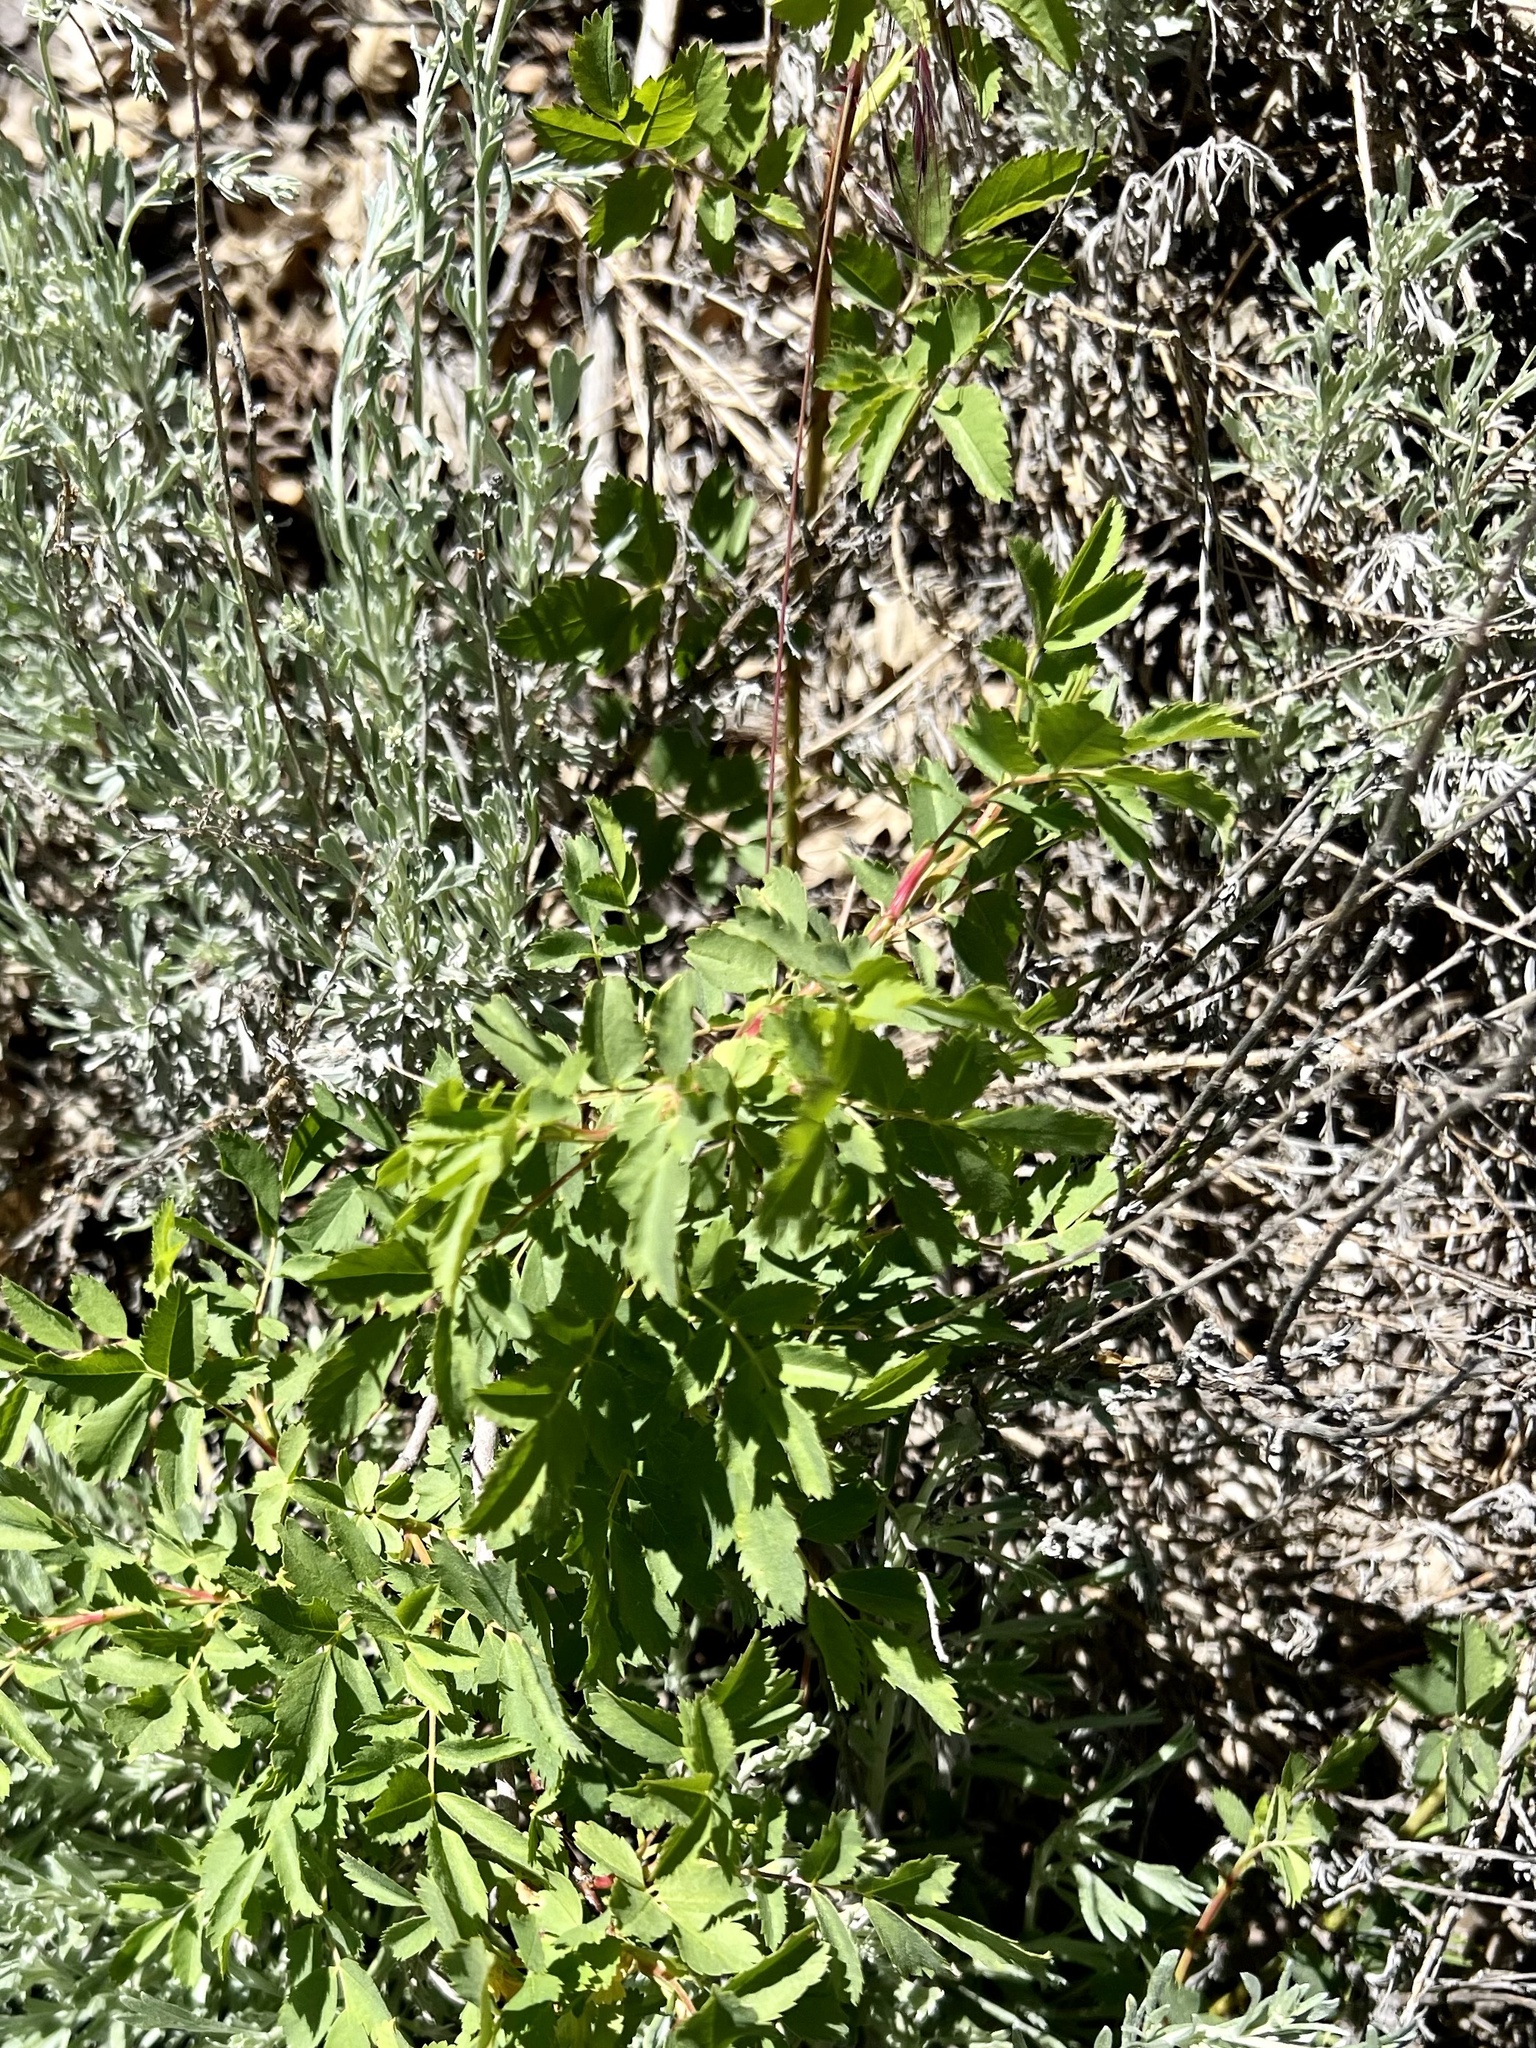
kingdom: Plantae
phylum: Tracheophyta
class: Magnoliopsida
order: Rosales
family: Rosaceae
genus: Rosa
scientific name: Rosa woodsii
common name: Woods's rose
